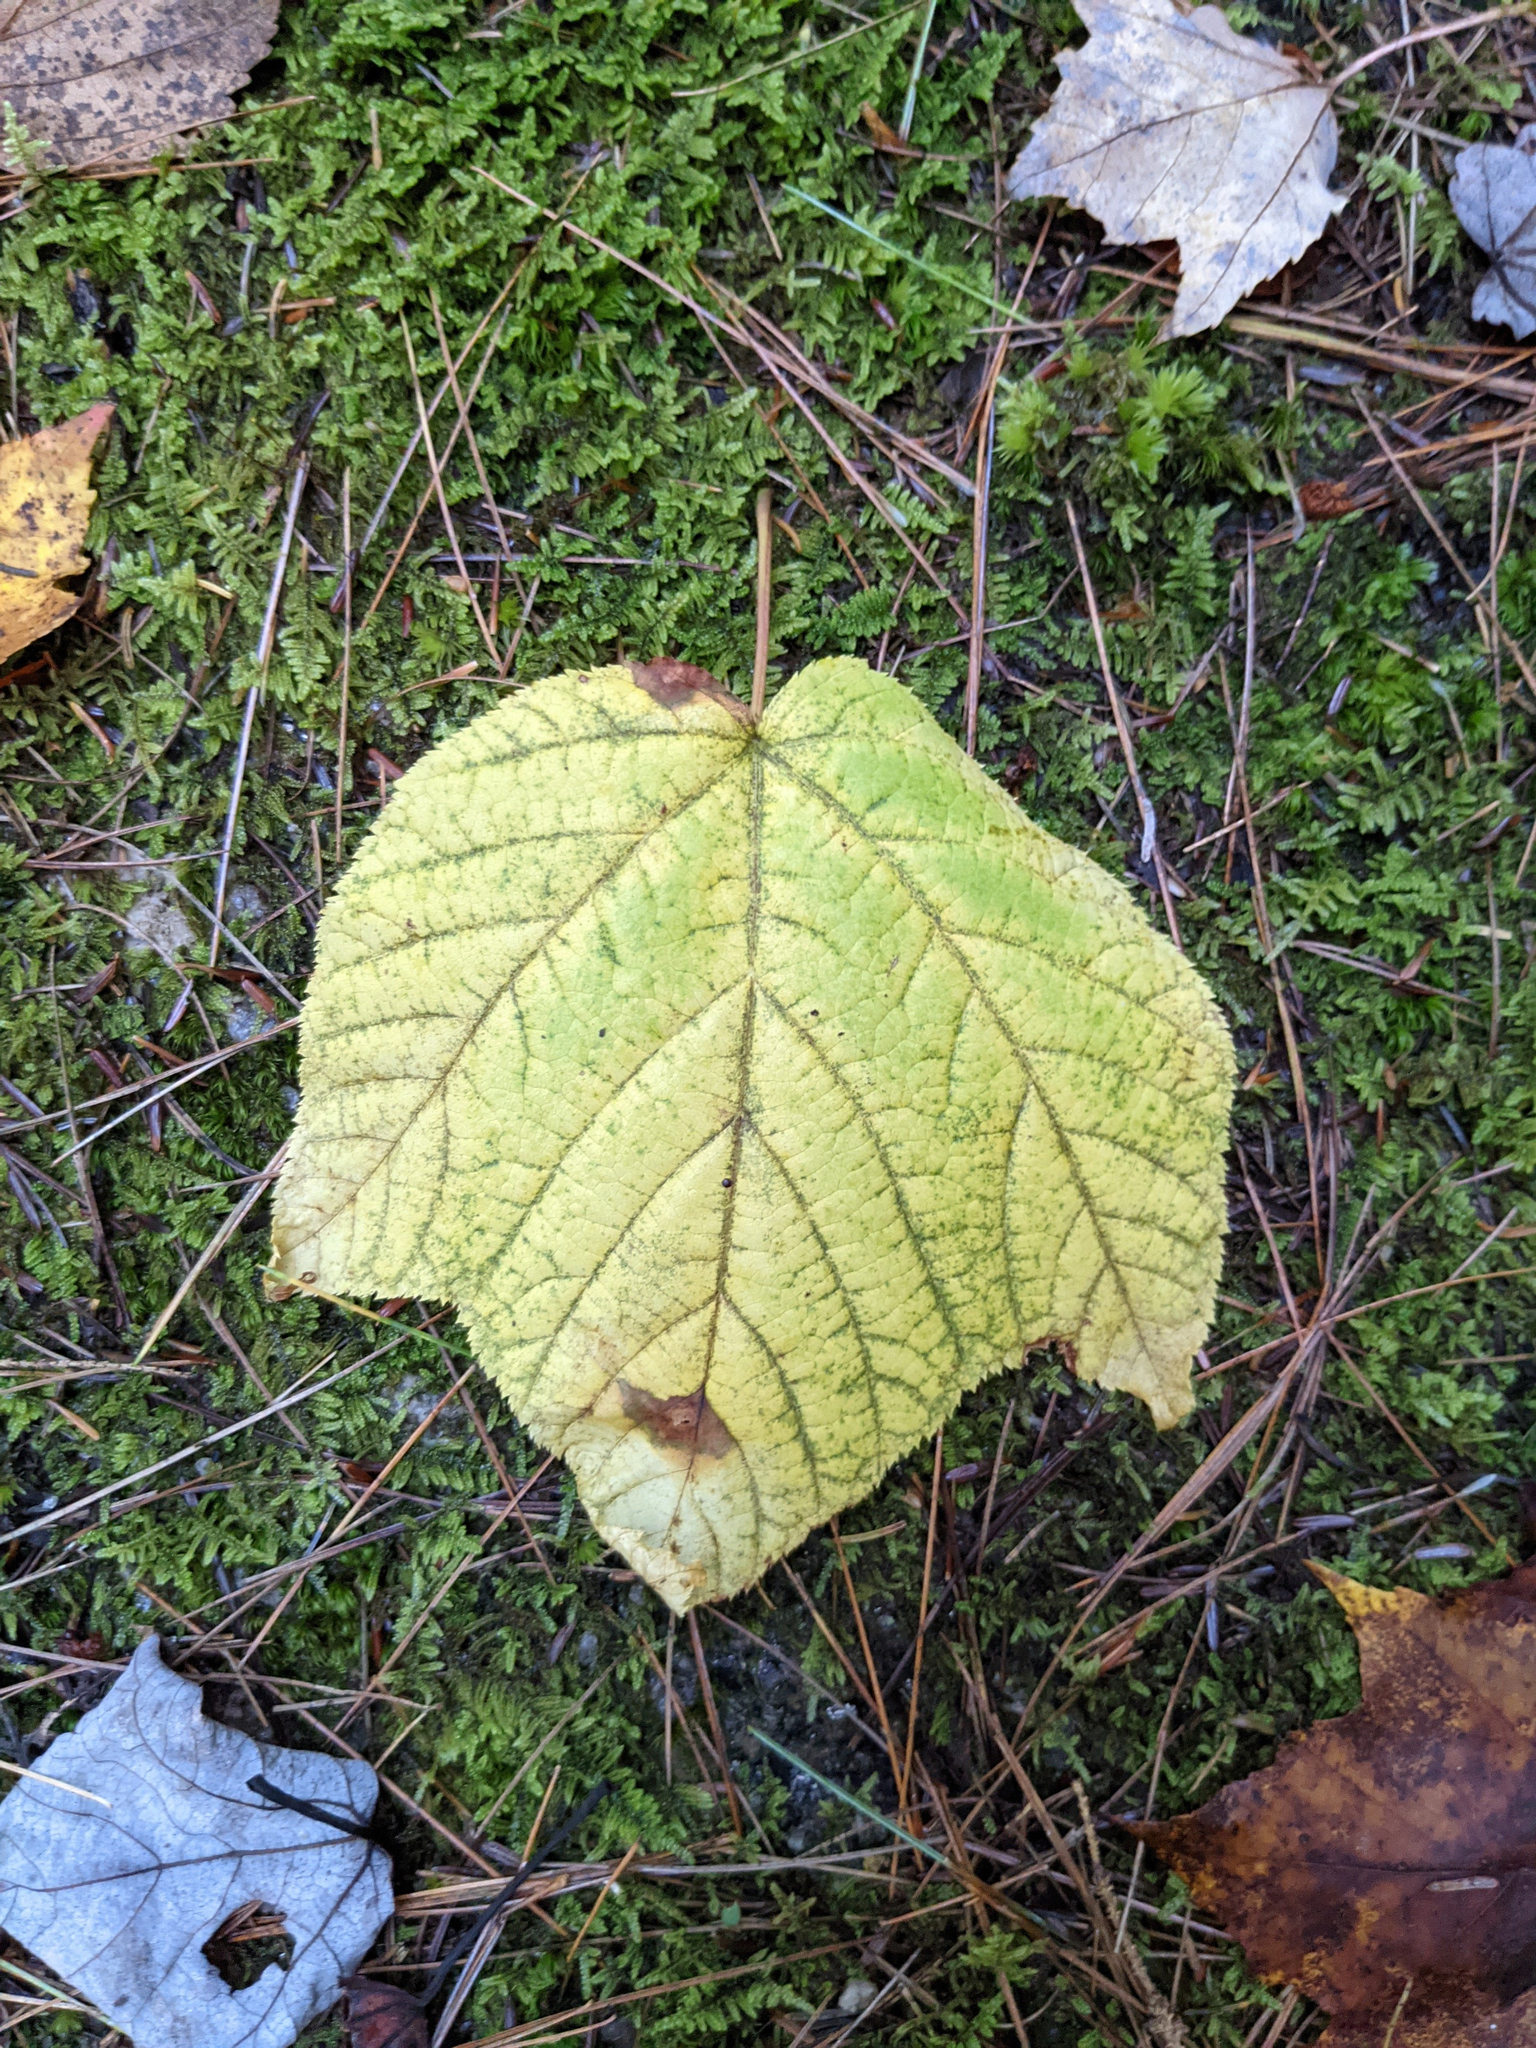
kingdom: Plantae
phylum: Tracheophyta
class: Magnoliopsida
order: Sapindales
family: Sapindaceae
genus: Acer
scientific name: Acer pensylvanicum
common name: Moosewood
